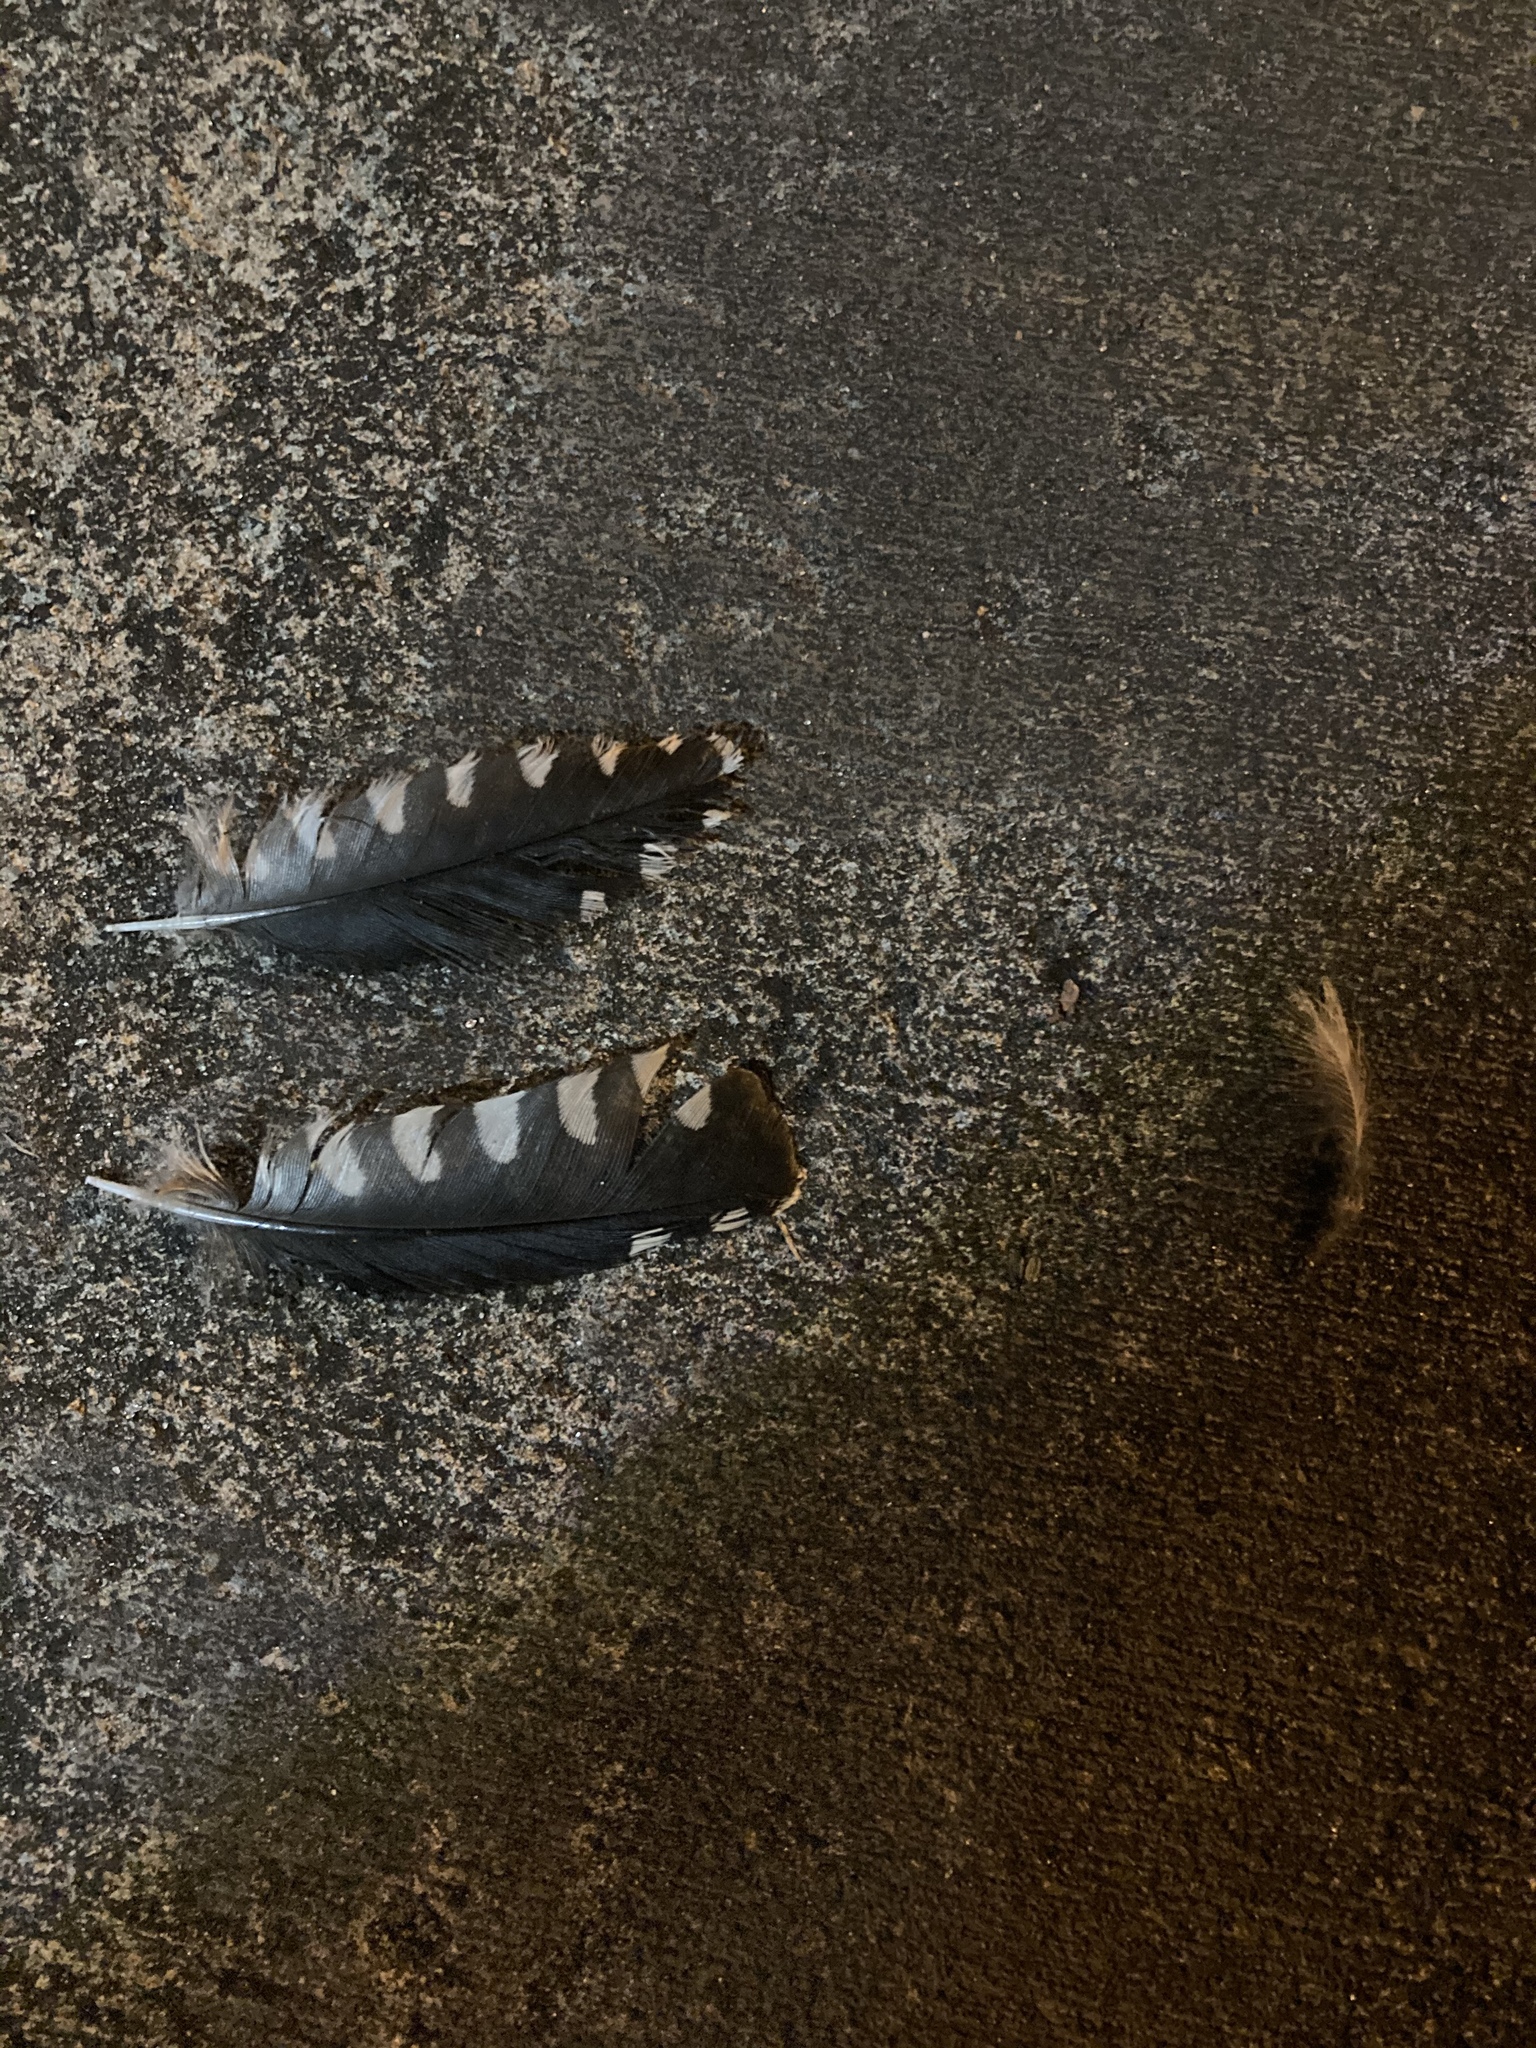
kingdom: Animalia
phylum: Chordata
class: Aves
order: Piciformes
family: Picidae
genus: Sphyrapicus
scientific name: Sphyrapicus varius
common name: Yellow-bellied sapsucker
